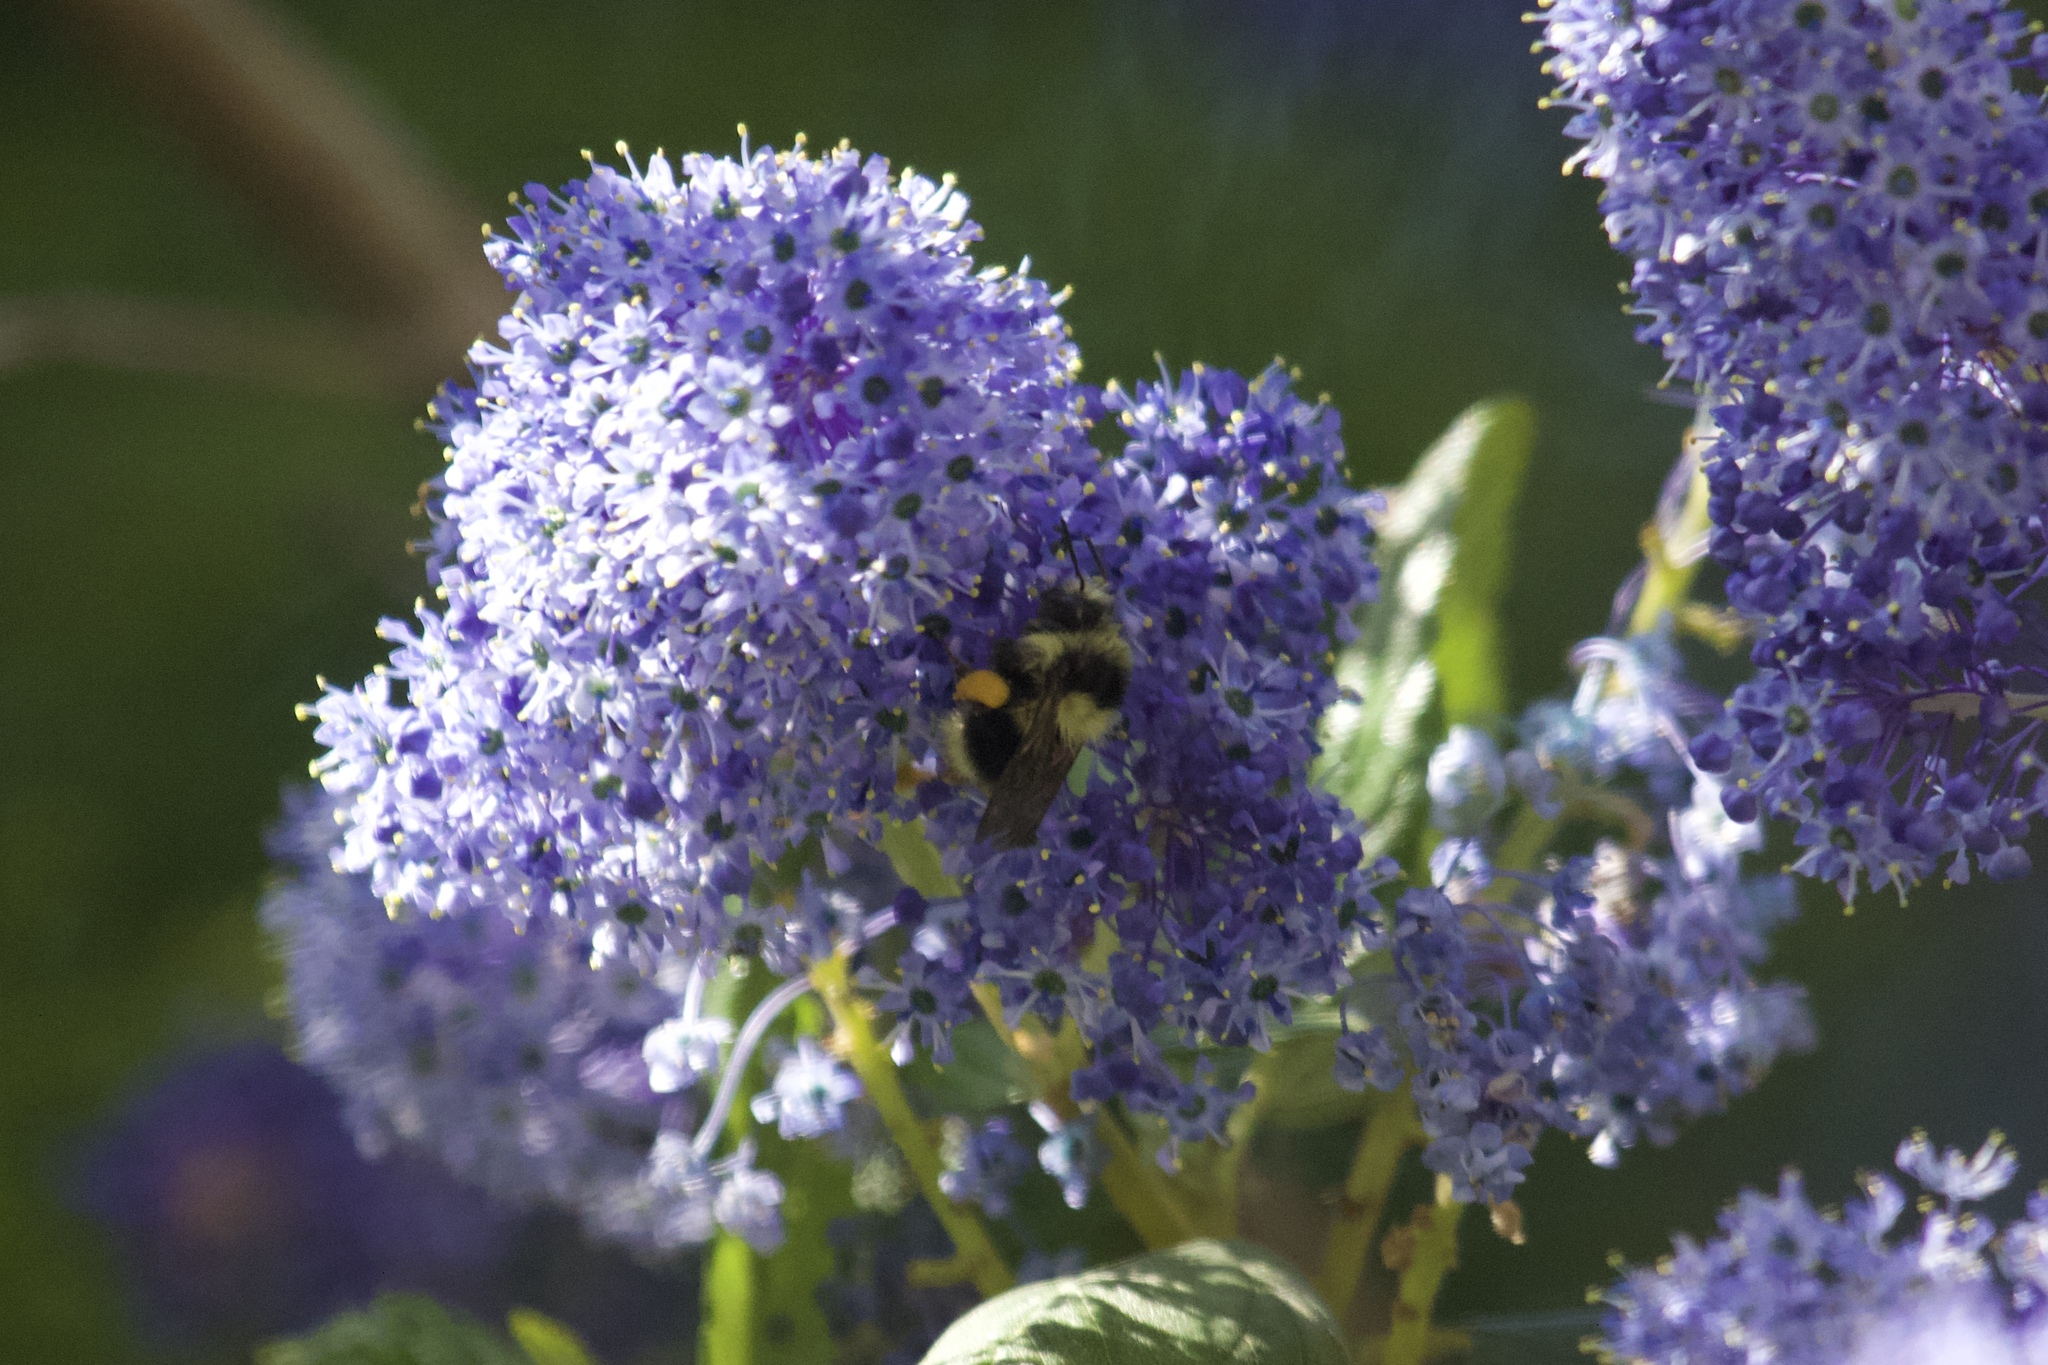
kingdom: Animalia
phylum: Arthropoda
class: Insecta
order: Hymenoptera
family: Apidae
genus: Bombus
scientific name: Bombus melanopygus
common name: Black tail bumble bee
